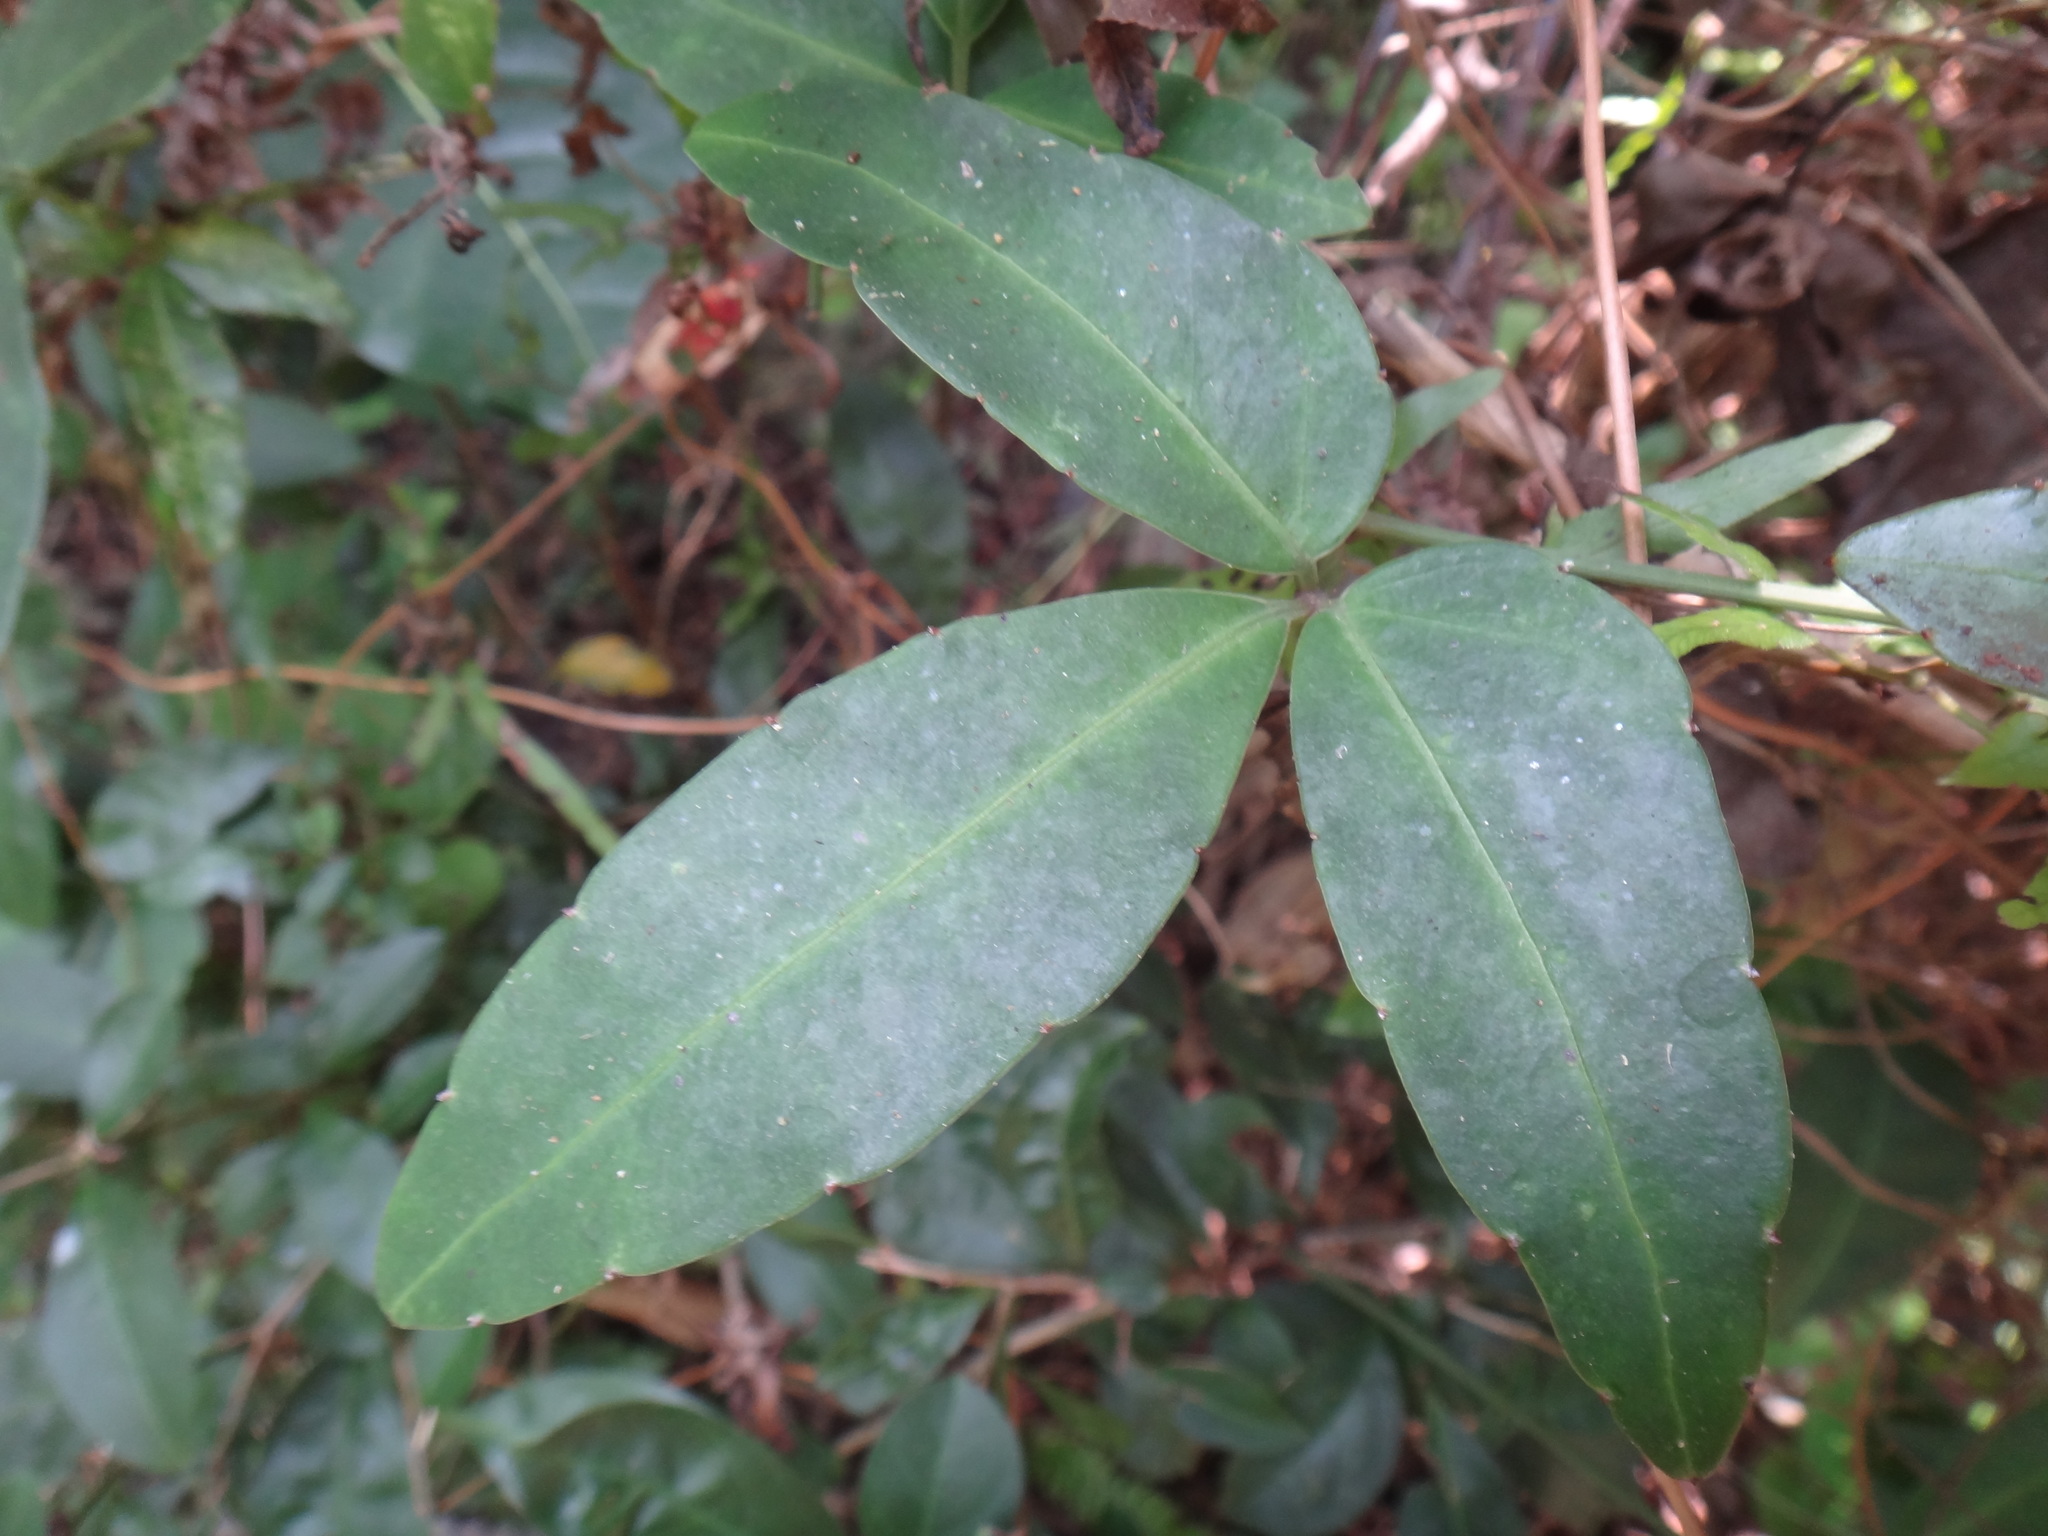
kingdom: Plantae
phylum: Tracheophyta
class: Magnoliopsida
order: Vitales
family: Vitaceae
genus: Tetrastigma
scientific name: Tetrastigma formosanum
